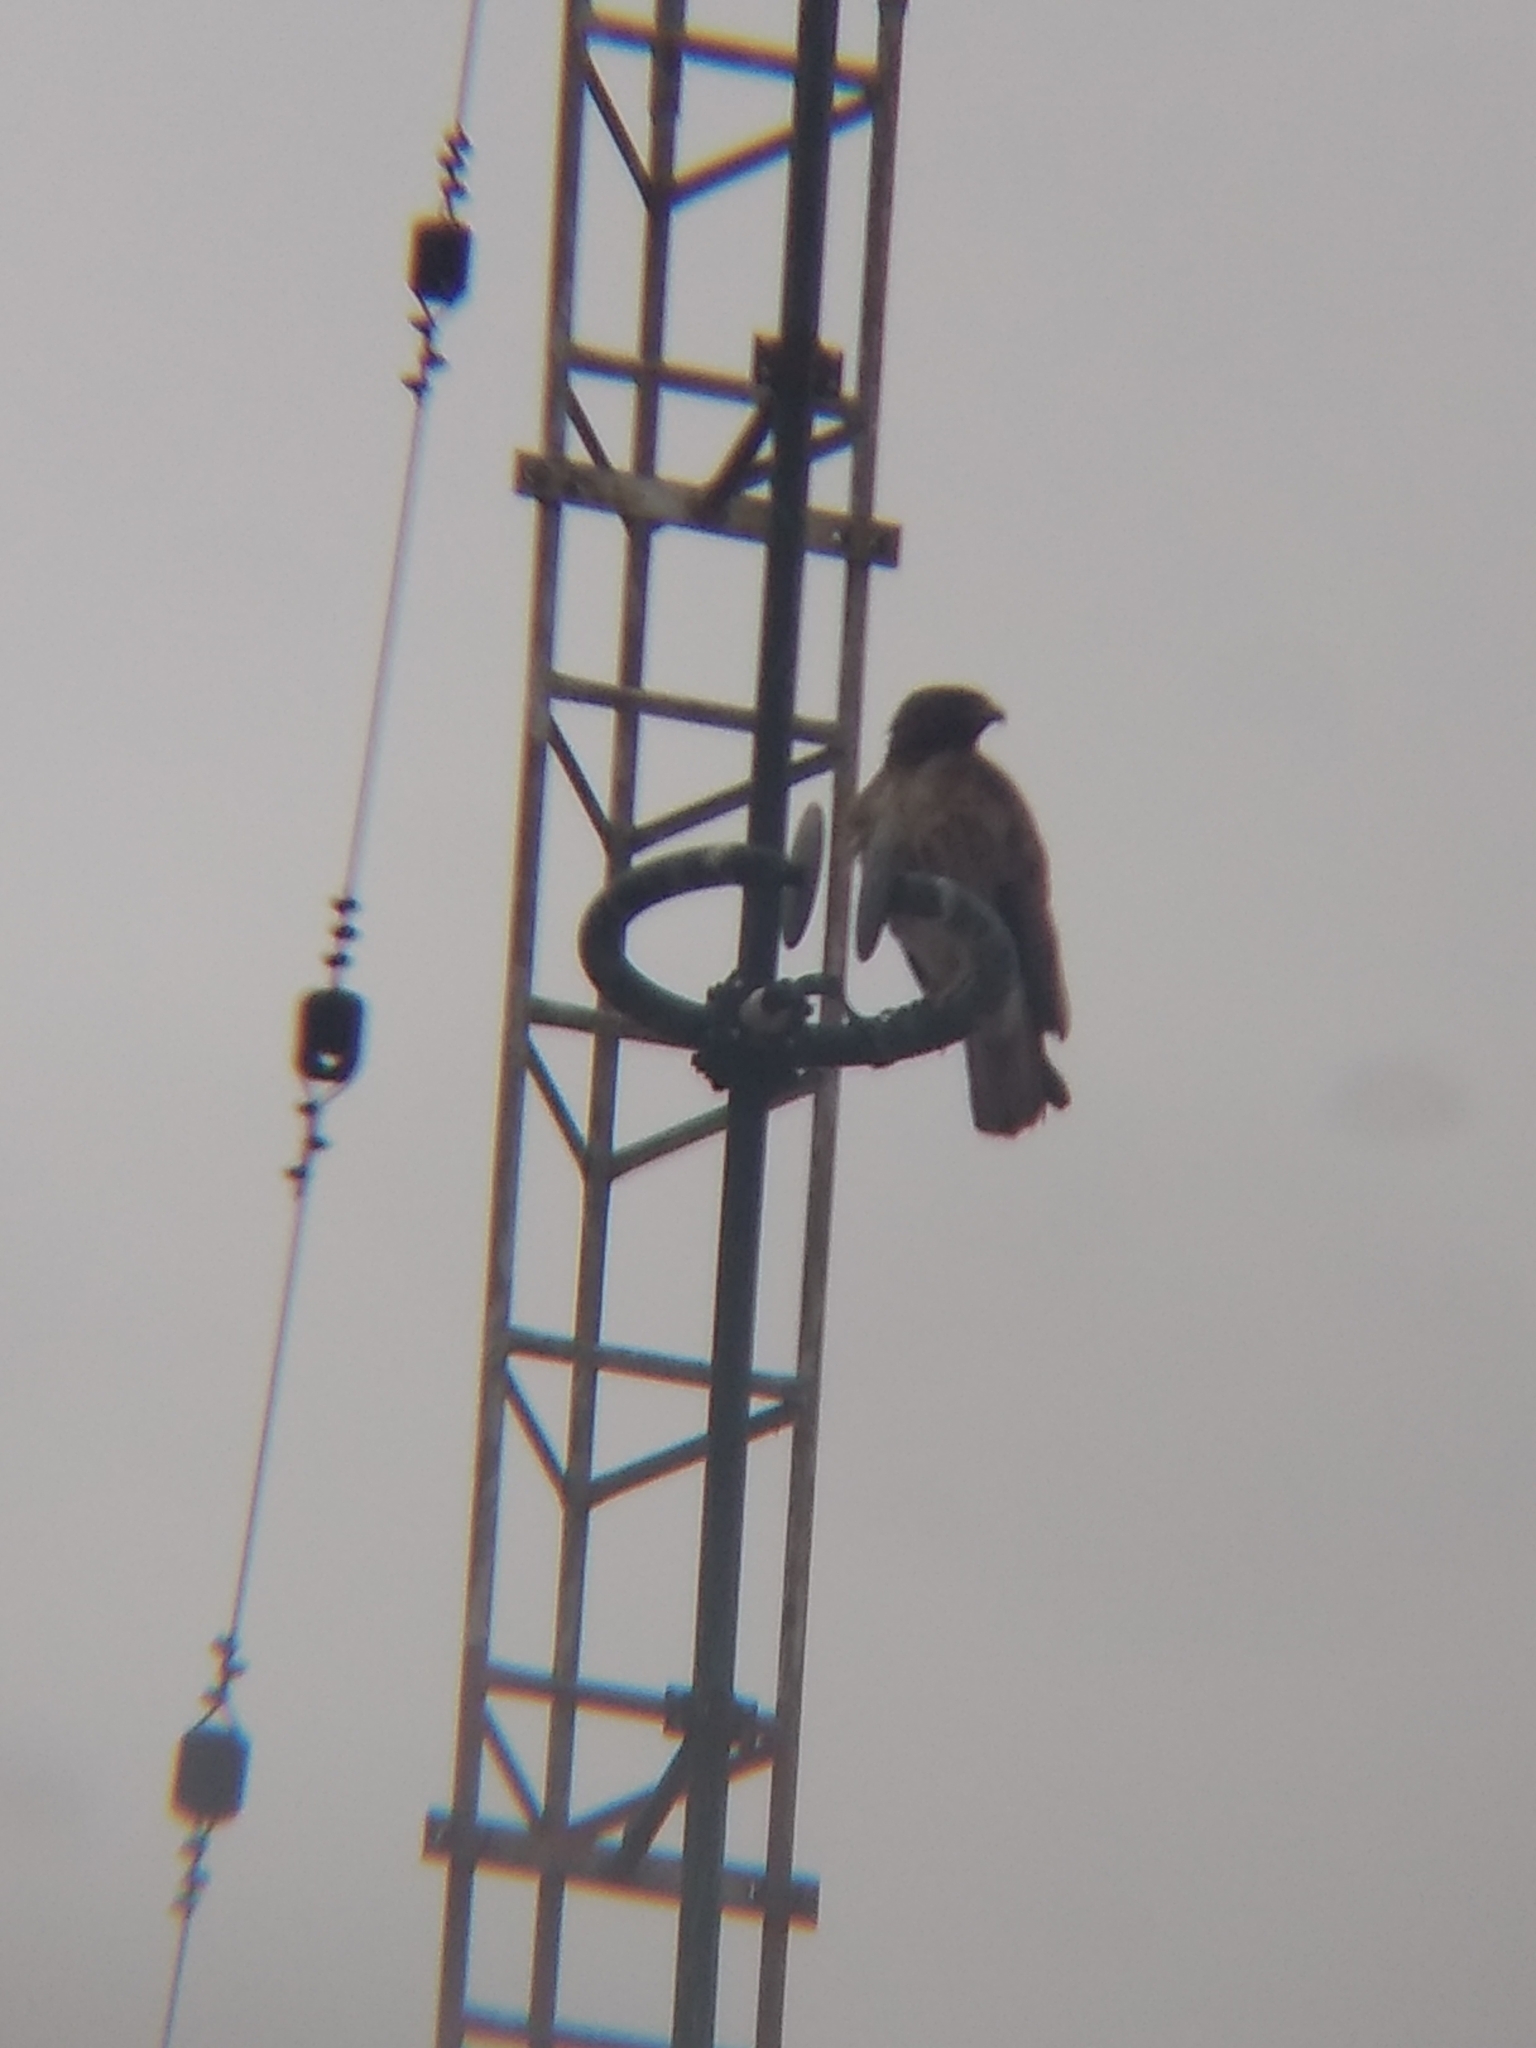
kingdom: Animalia
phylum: Chordata
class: Aves
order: Accipitriformes
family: Accipitridae
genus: Buteo
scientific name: Buteo jamaicensis
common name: Red-tailed hawk
